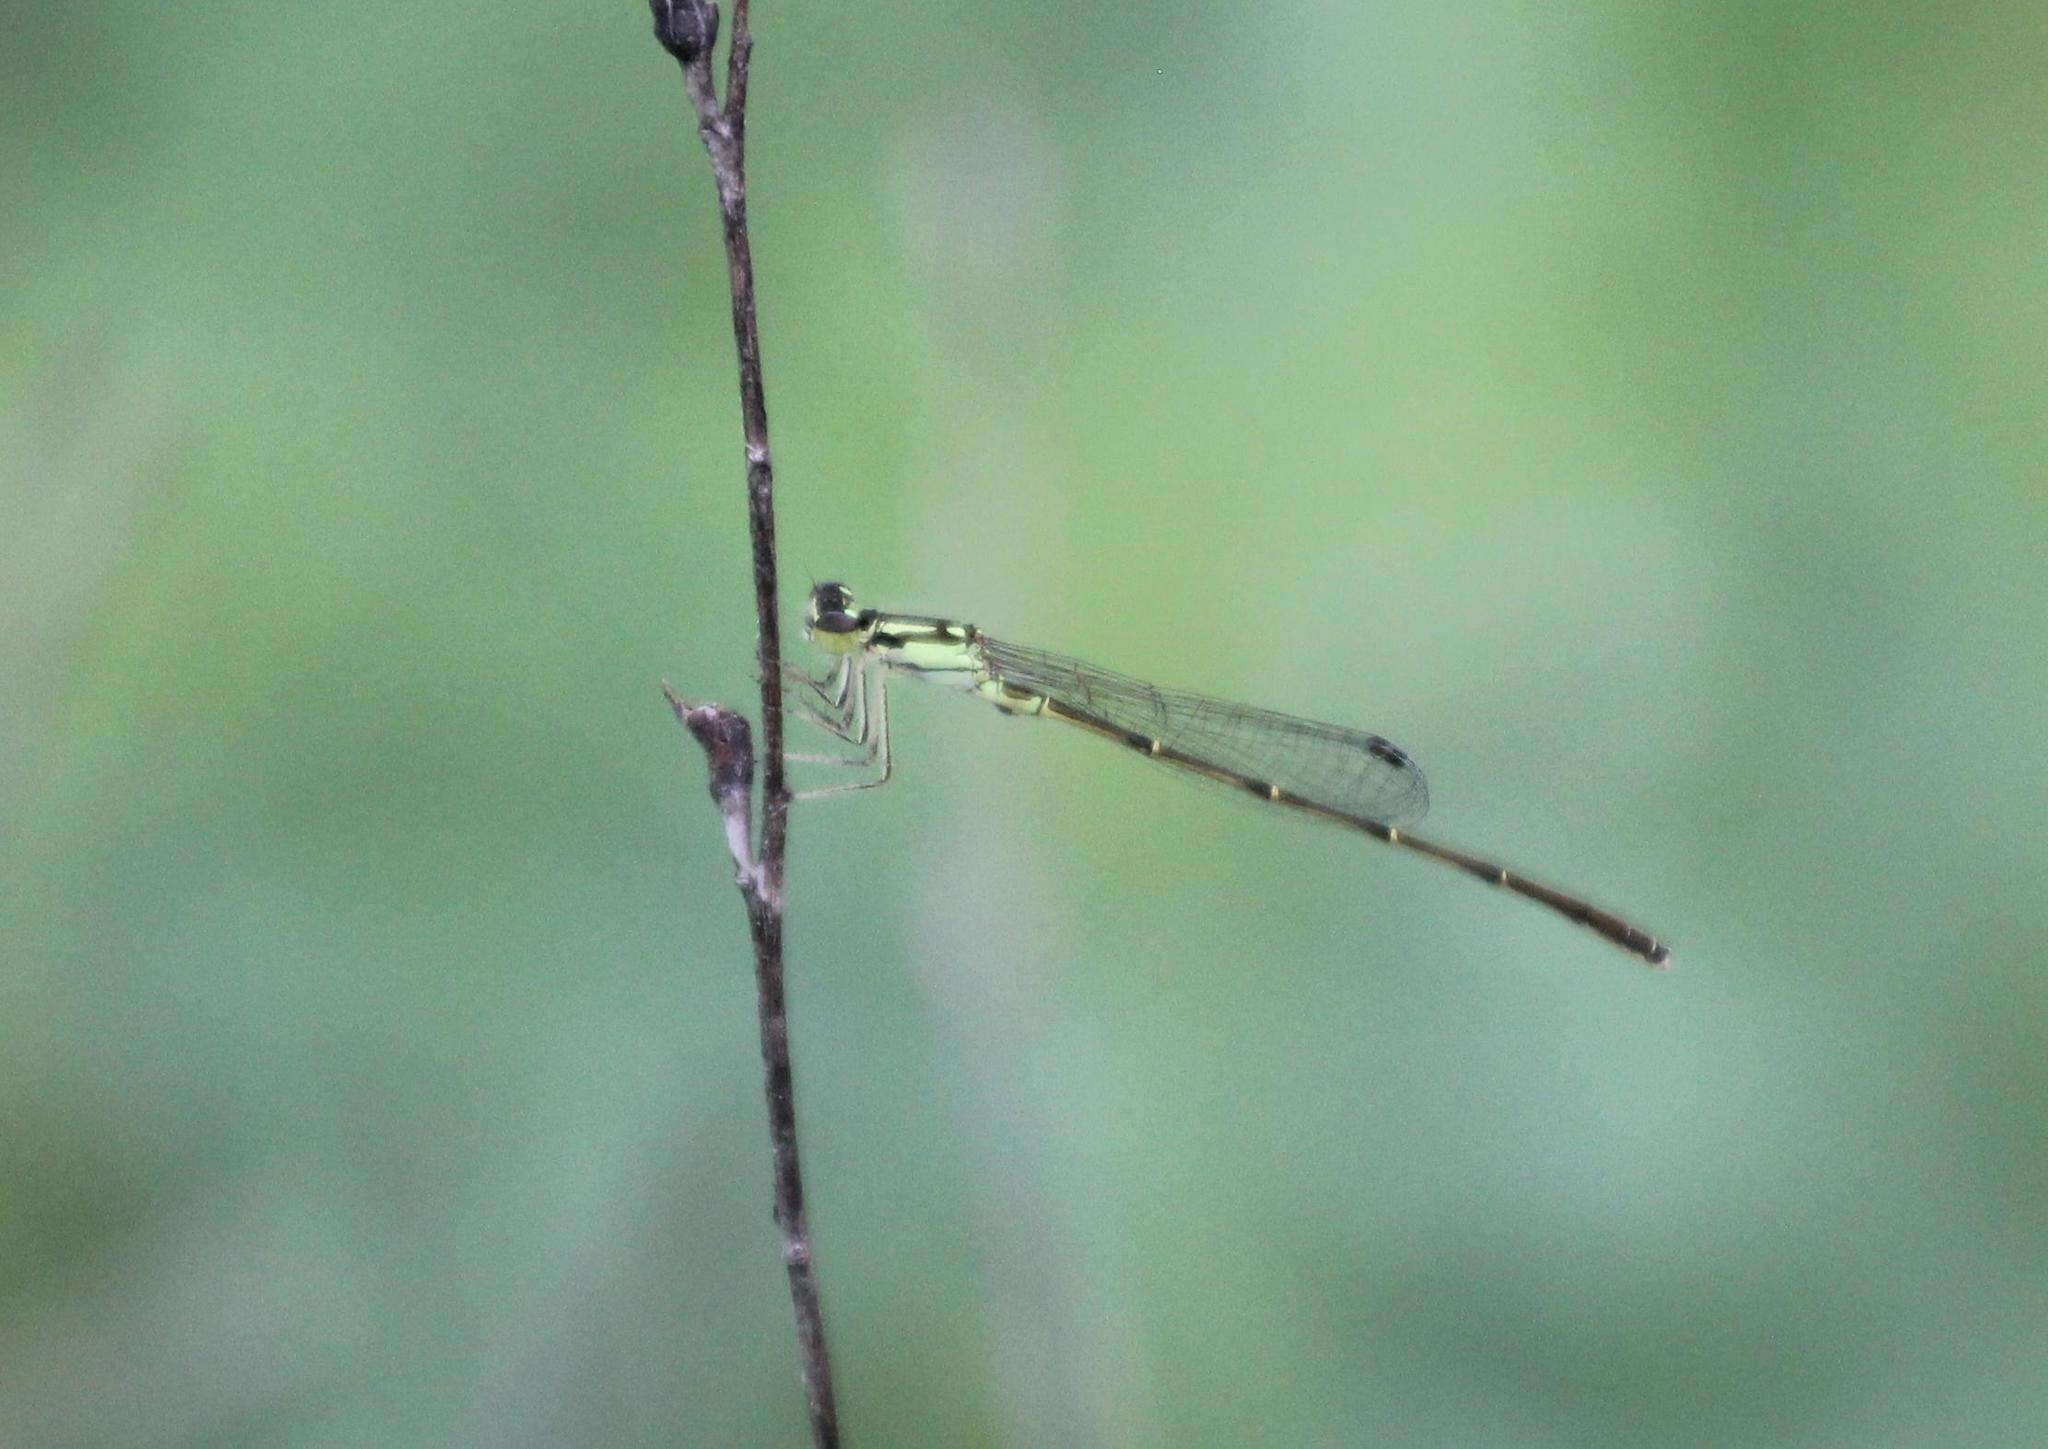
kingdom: Animalia
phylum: Arthropoda
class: Insecta
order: Odonata
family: Coenagrionidae
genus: Ischnura
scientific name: Ischnura posita
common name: Fragile forktail
